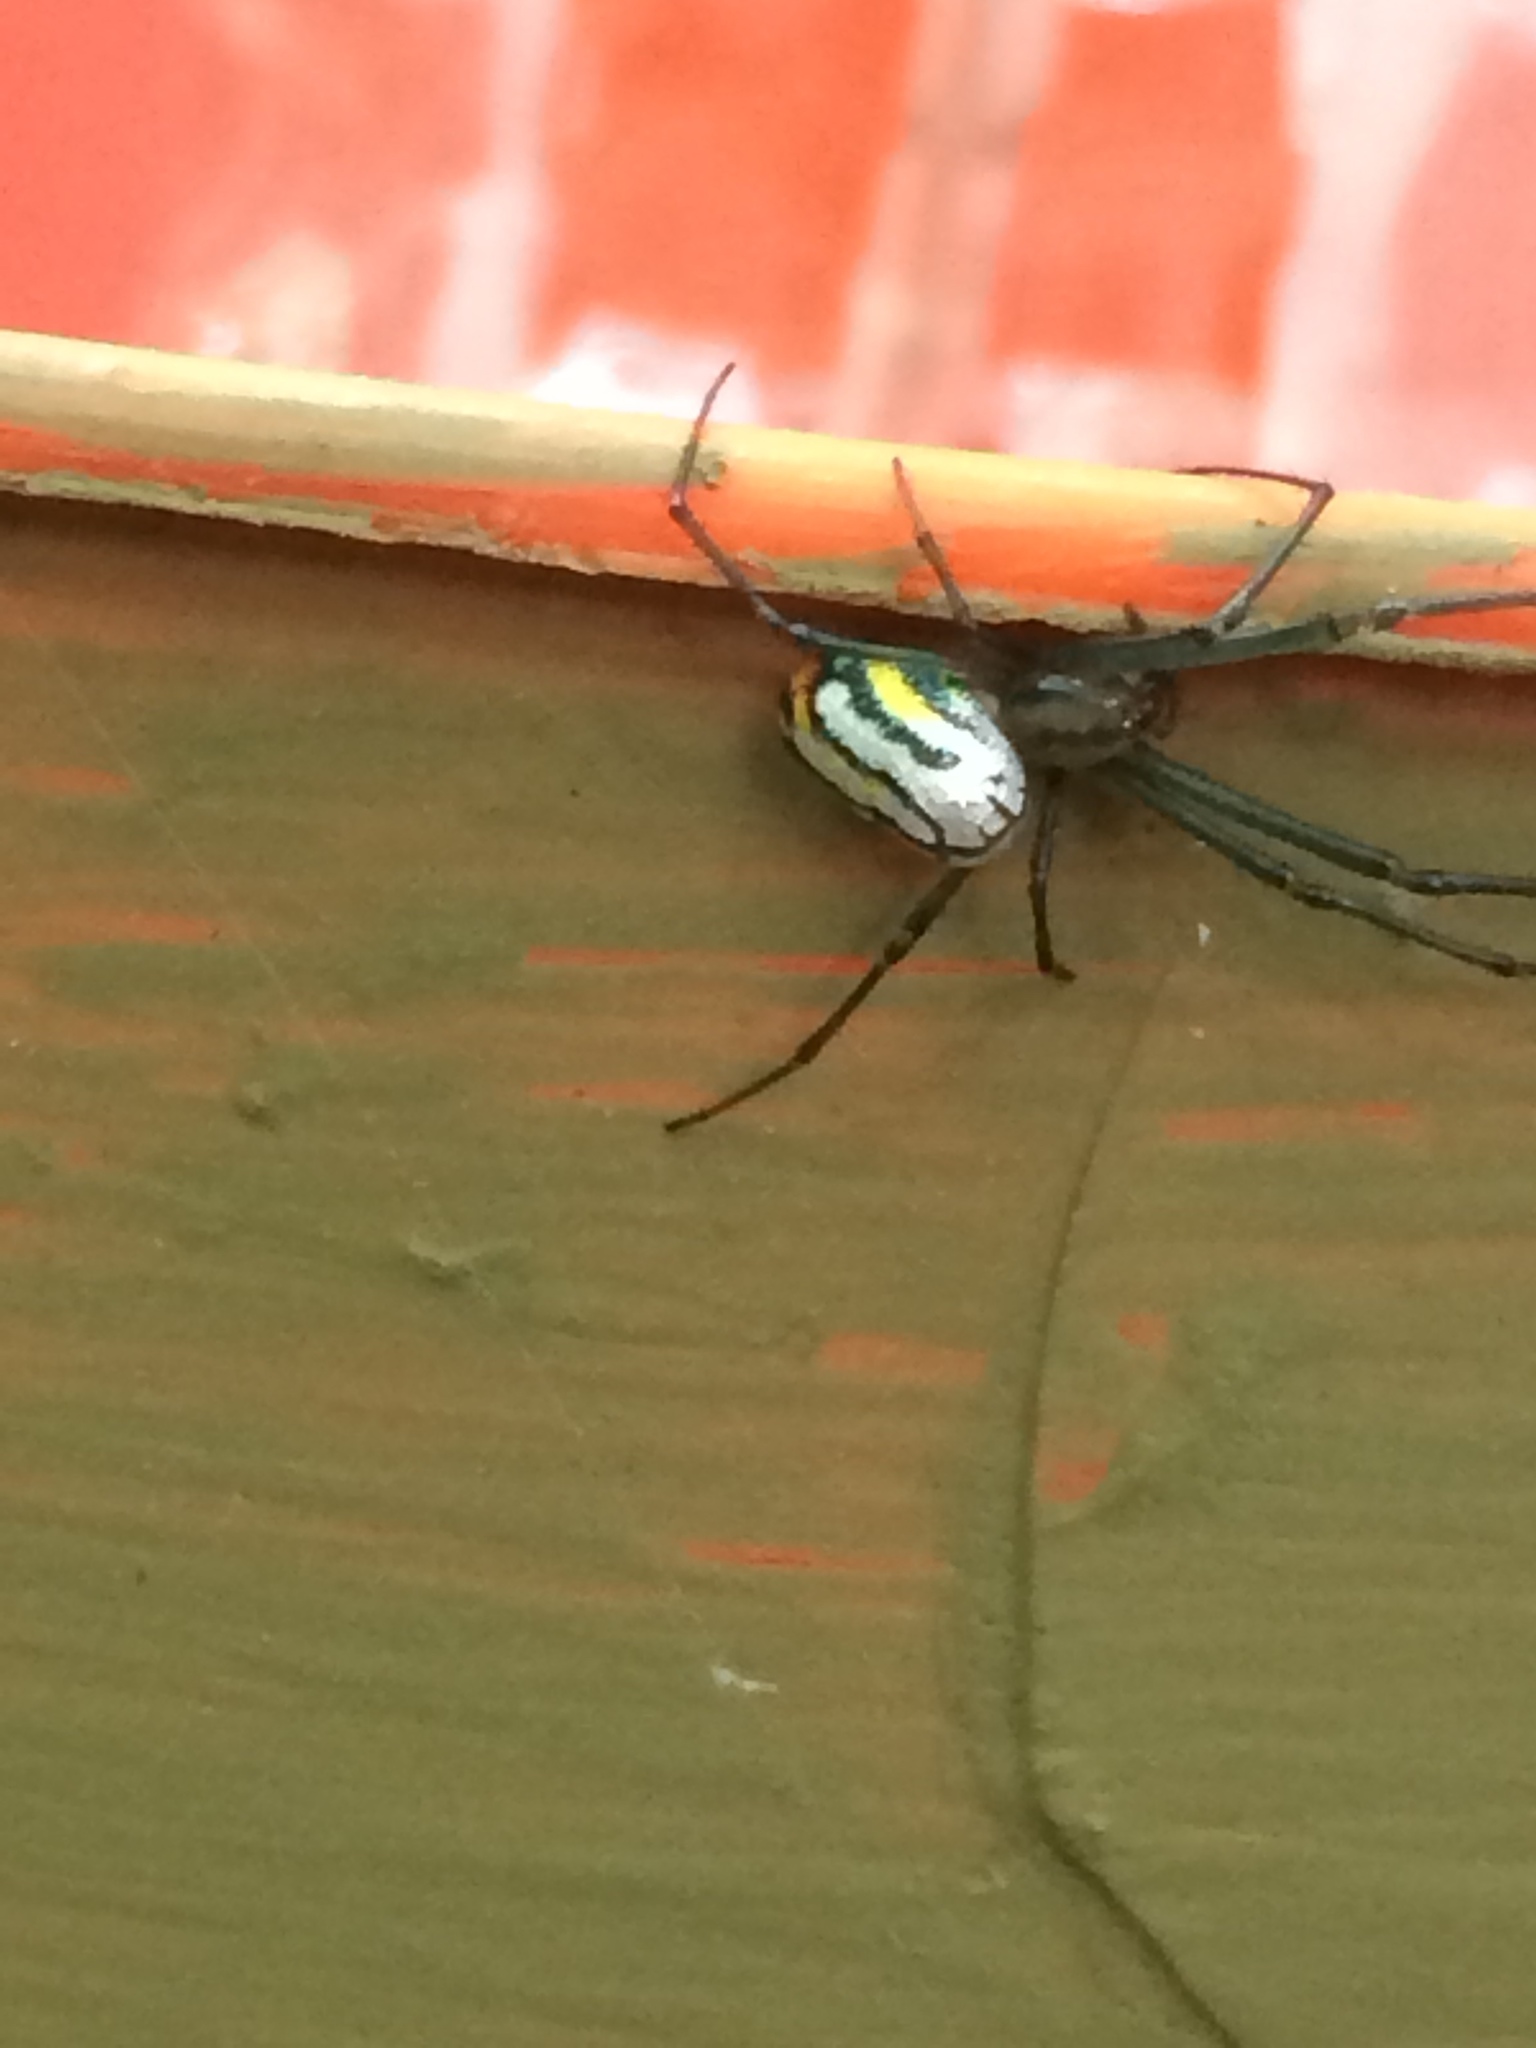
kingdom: Animalia
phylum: Arthropoda
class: Arachnida
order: Araneae
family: Tetragnathidae
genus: Leucauge
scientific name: Leucauge argyrobapta
